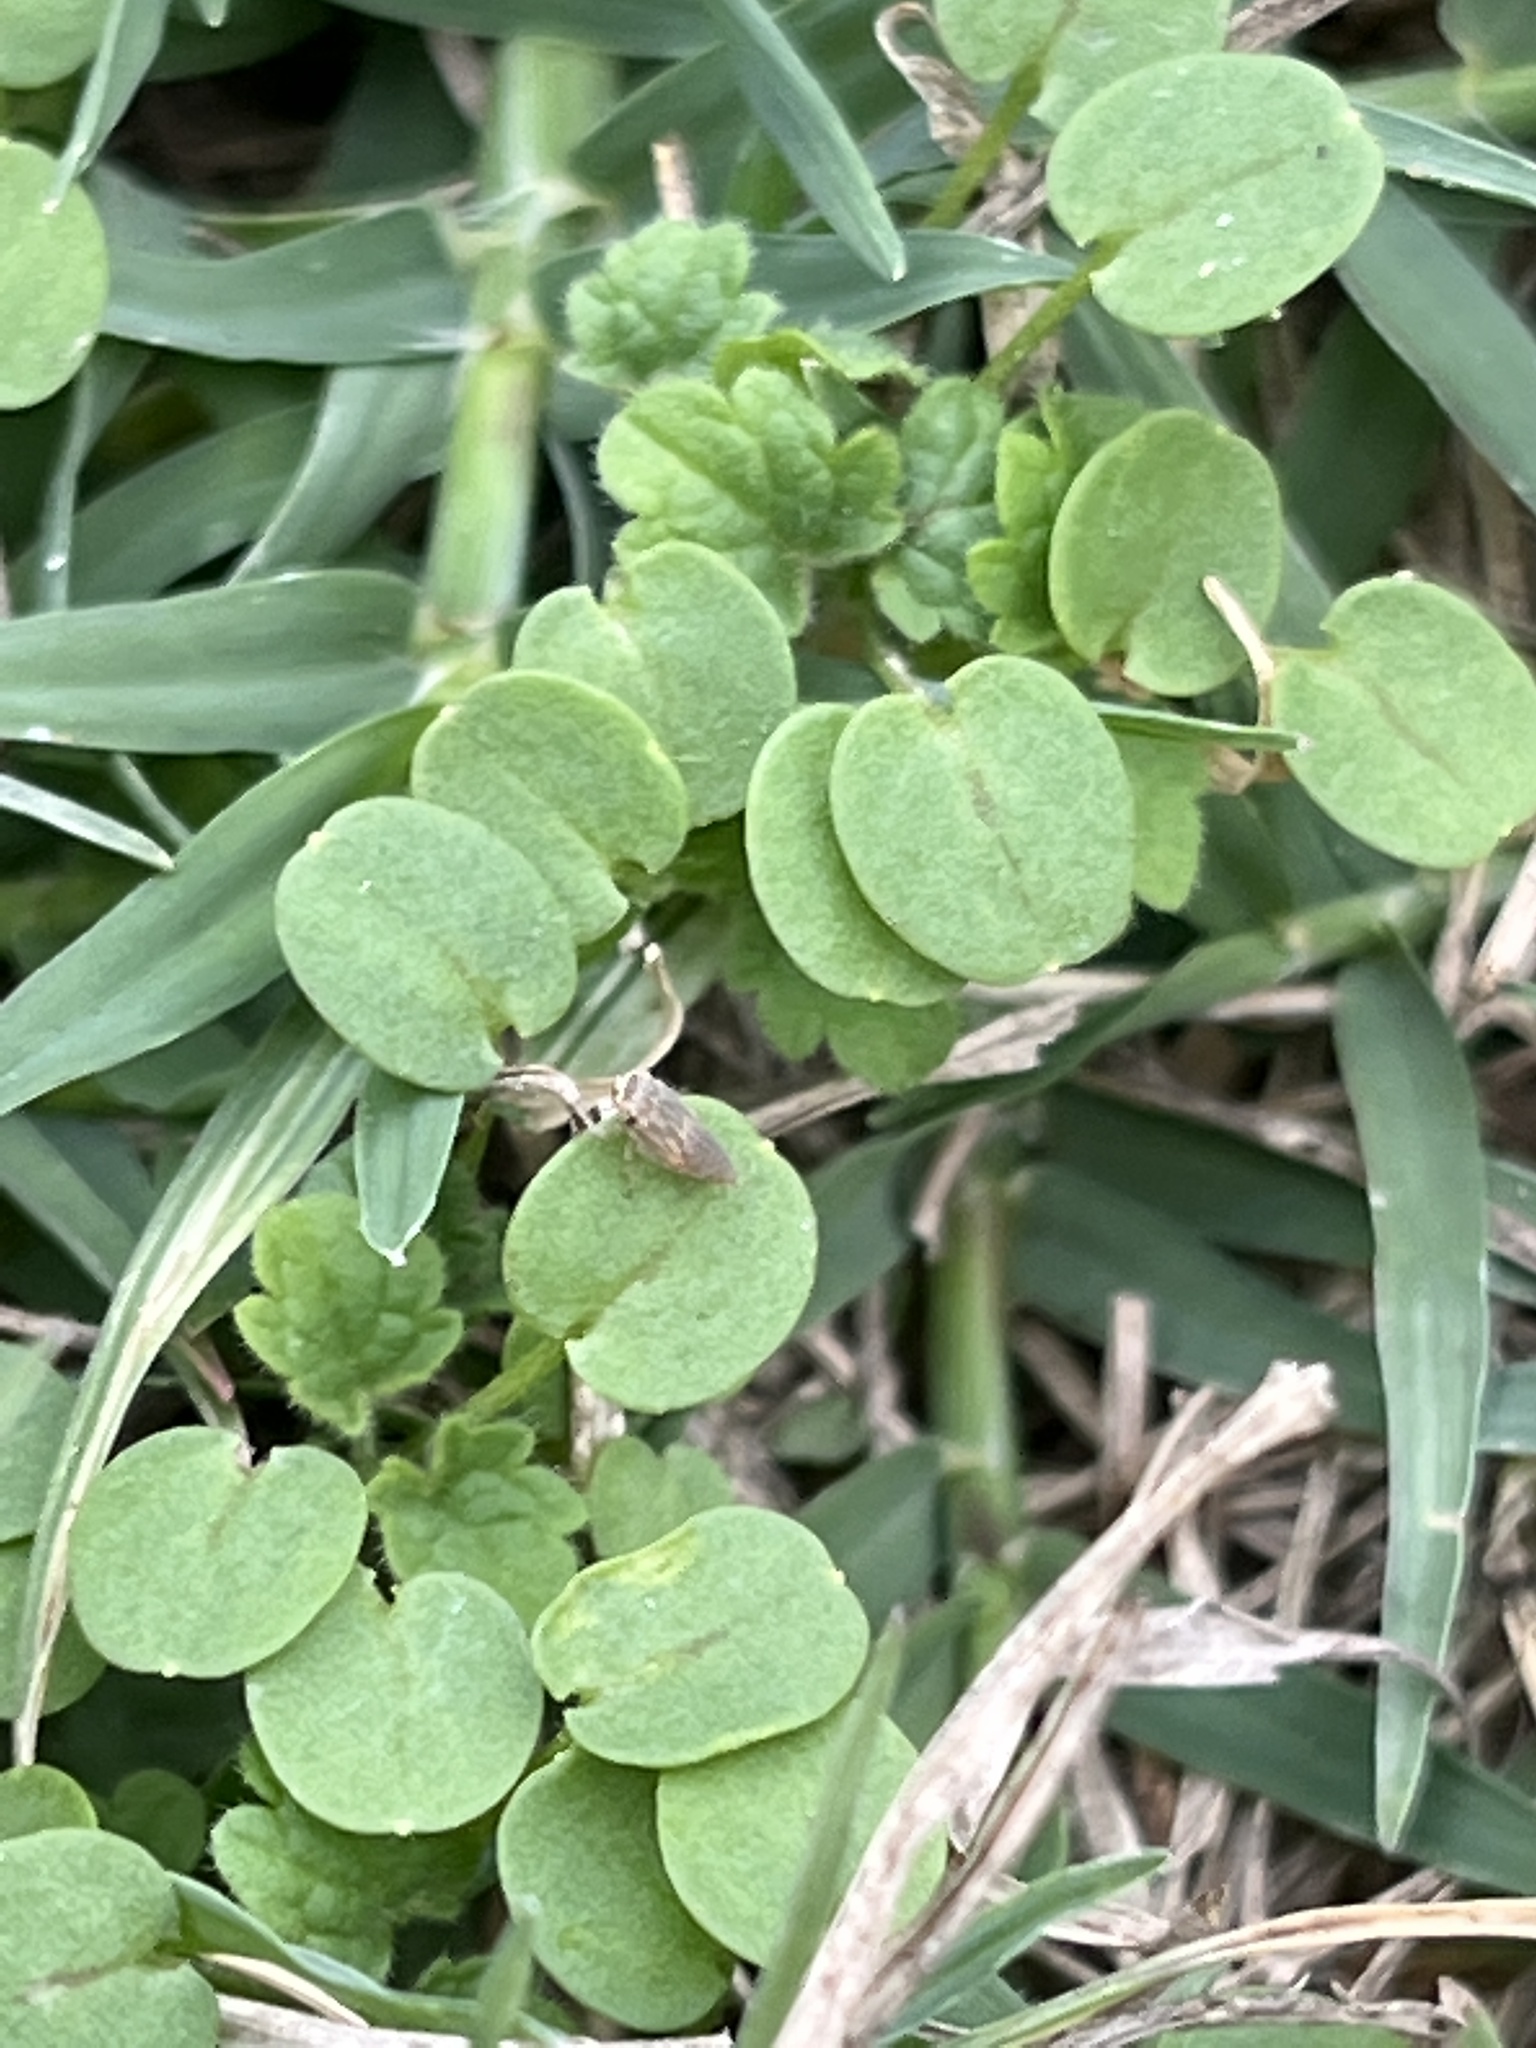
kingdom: Animalia
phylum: Arthropoda
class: Insecta
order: Hemiptera
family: Cicadellidae
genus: Exitianus
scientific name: Exitianus exitiosus
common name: Gray lawn leafhopper
